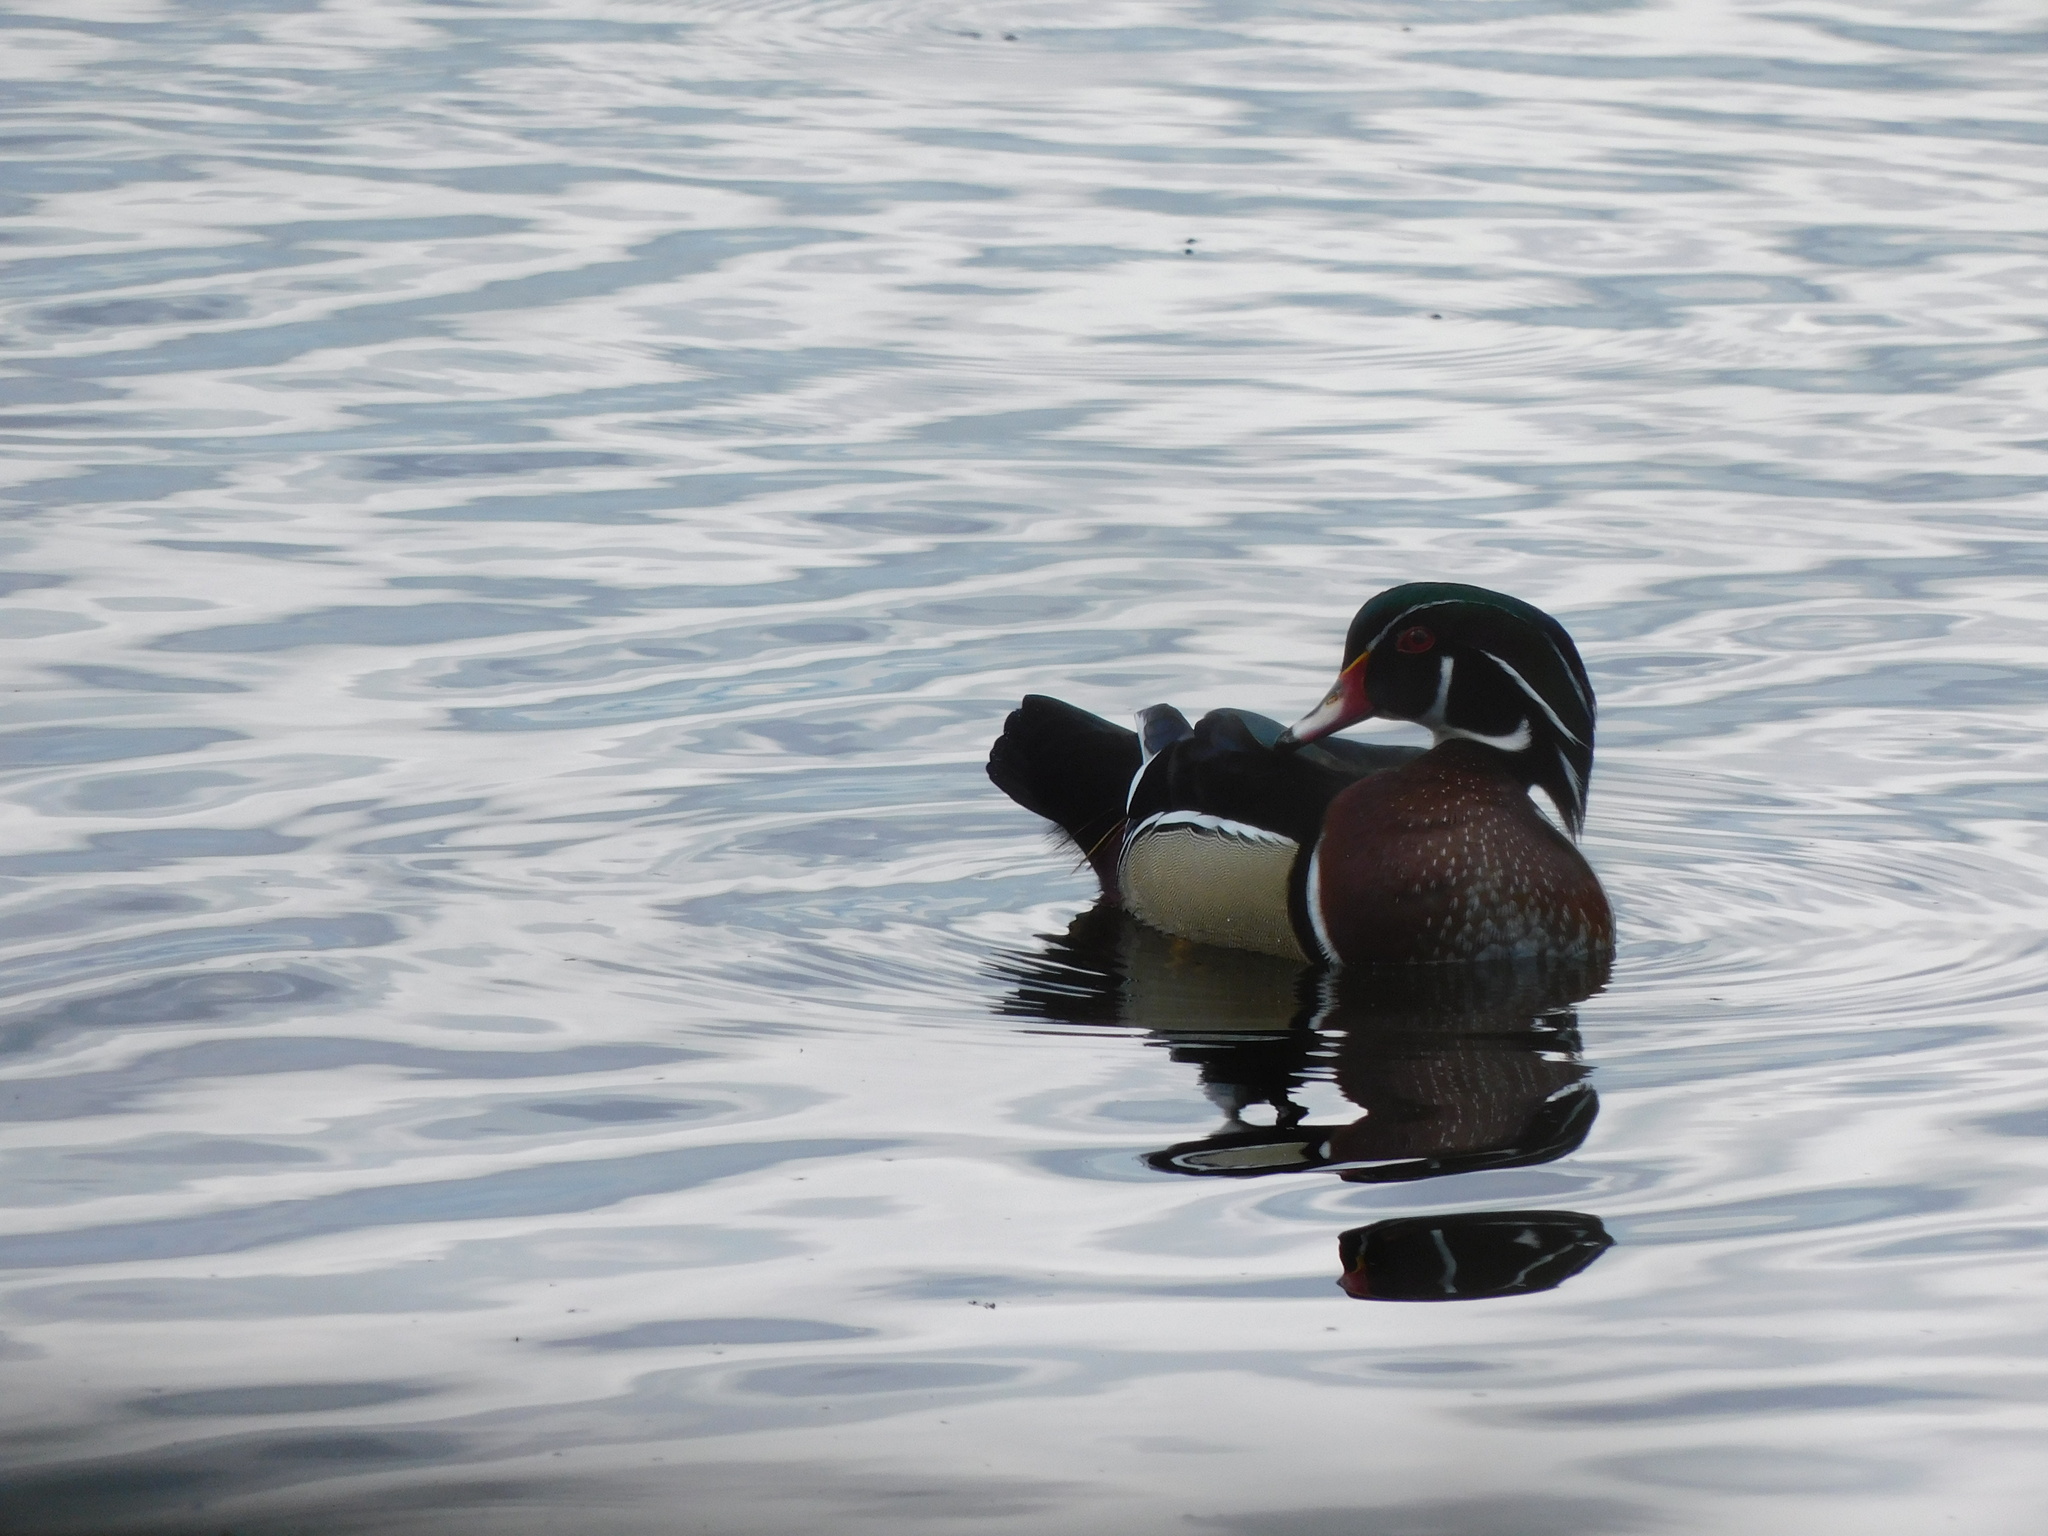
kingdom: Animalia
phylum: Chordata
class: Aves
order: Anseriformes
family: Anatidae
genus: Aix
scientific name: Aix sponsa
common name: Wood duck
